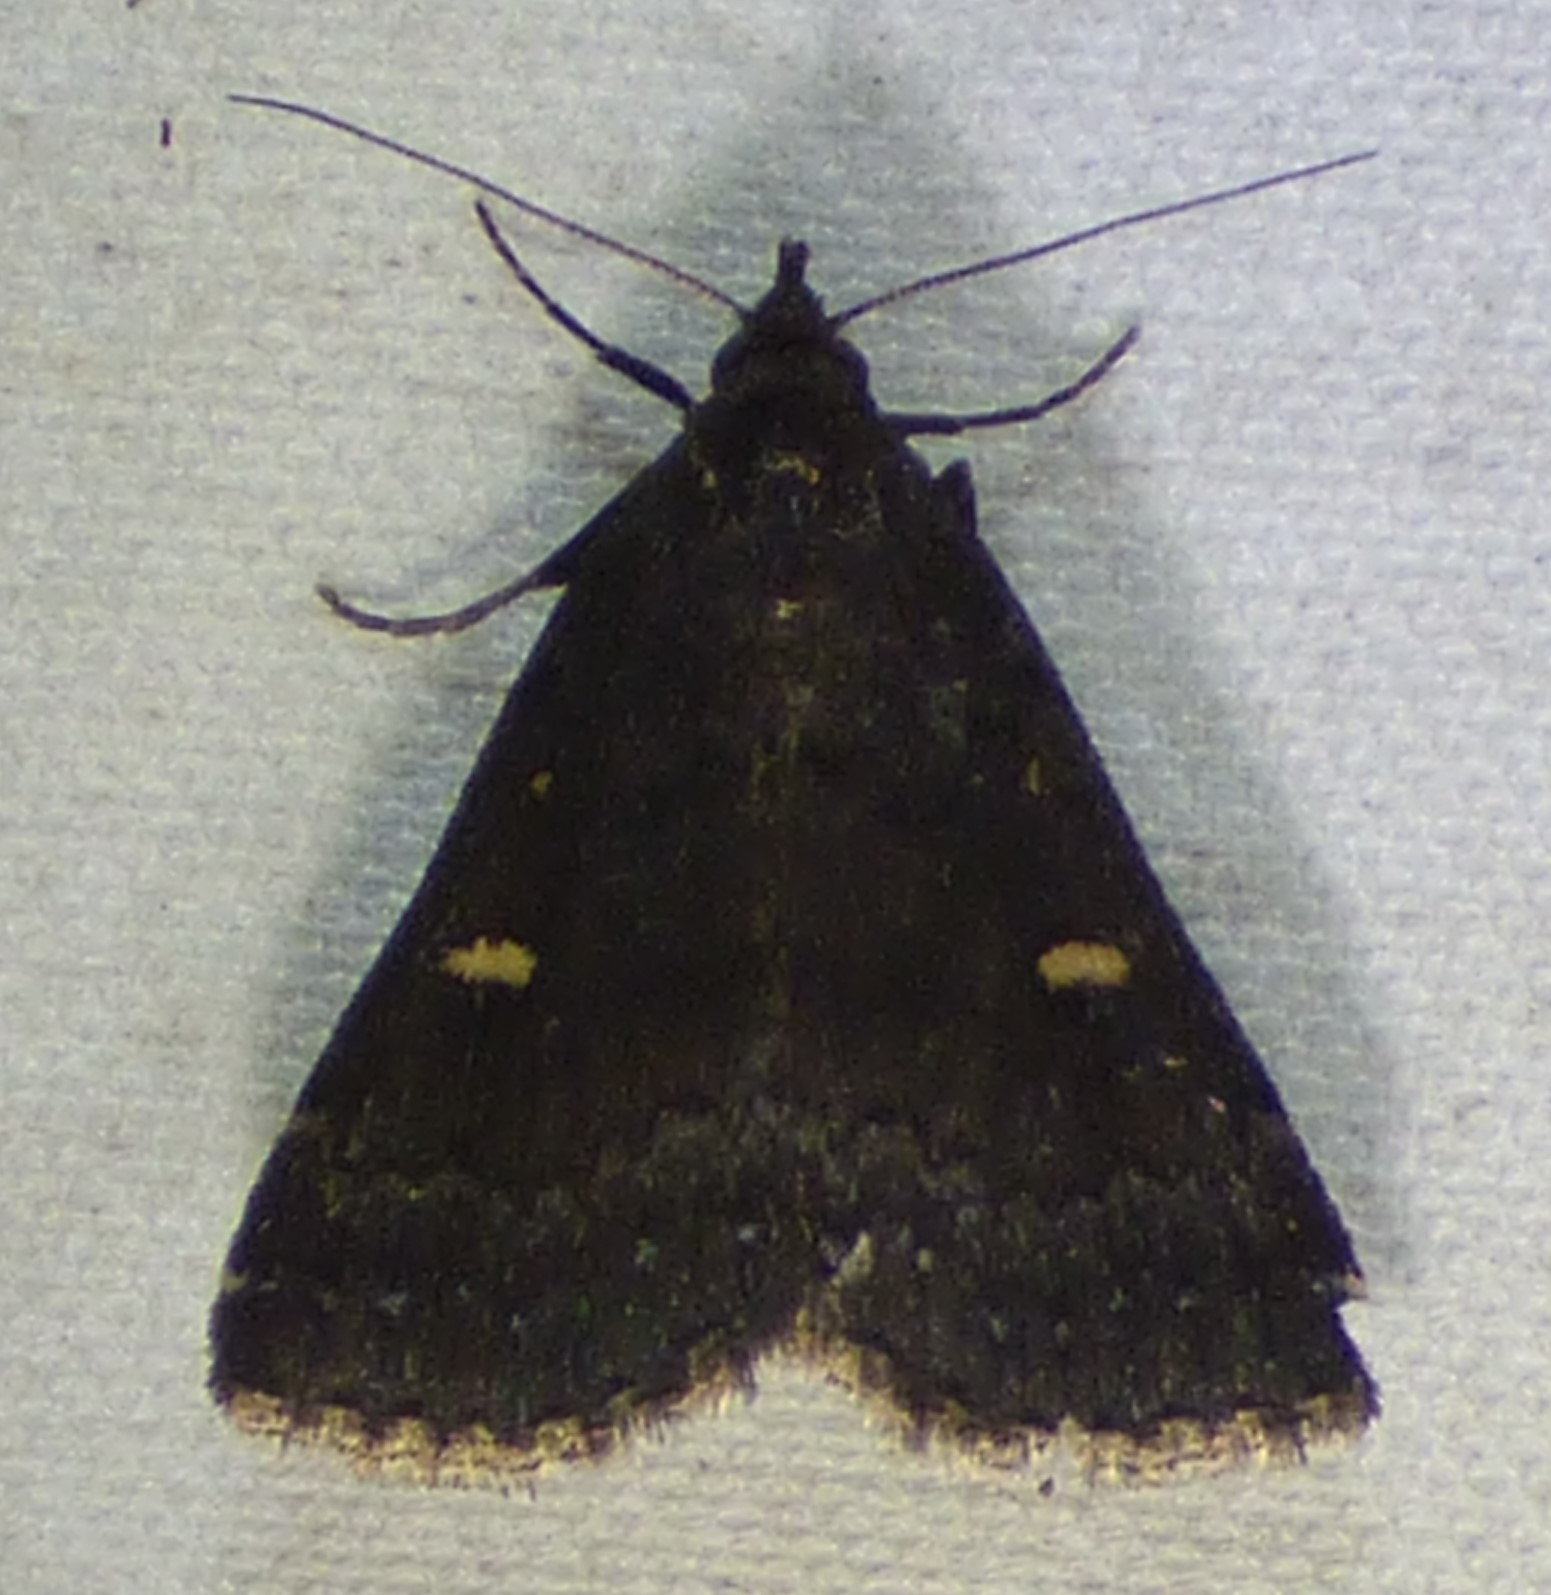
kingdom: Animalia
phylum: Arthropoda
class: Insecta
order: Lepidoptera
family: Erebidae
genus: Tetanolita
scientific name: Tetanolita mynesalis
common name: Smoky tetanolita moth
